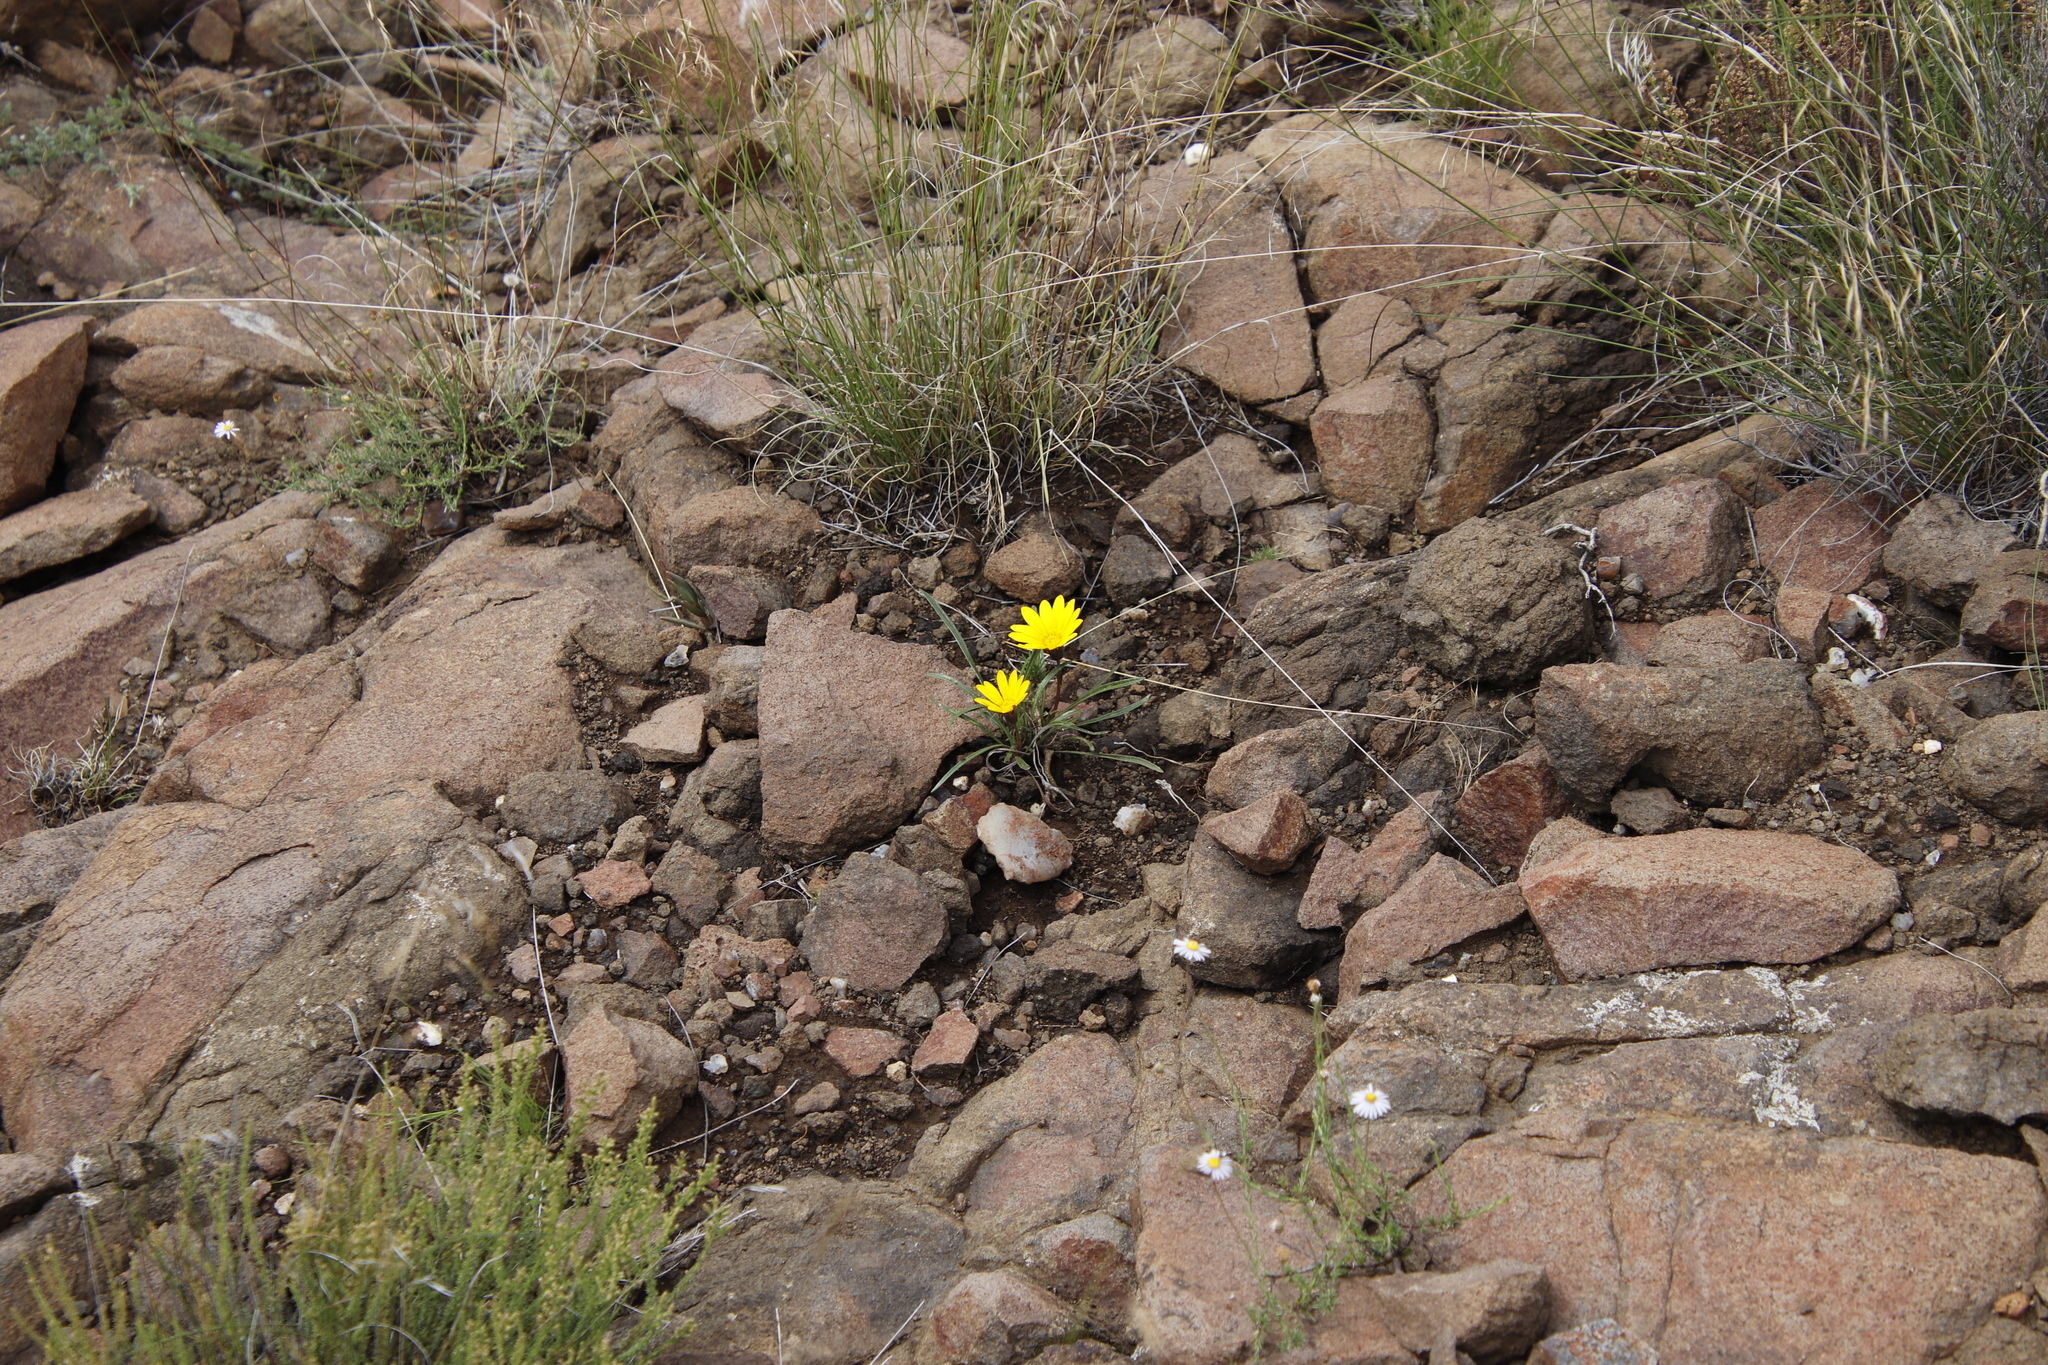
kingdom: Plantae
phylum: Tracheophyta
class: Magnoliopsida
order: Asterales
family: Asteraceae
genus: Gazania
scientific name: Gazania krebsiana
